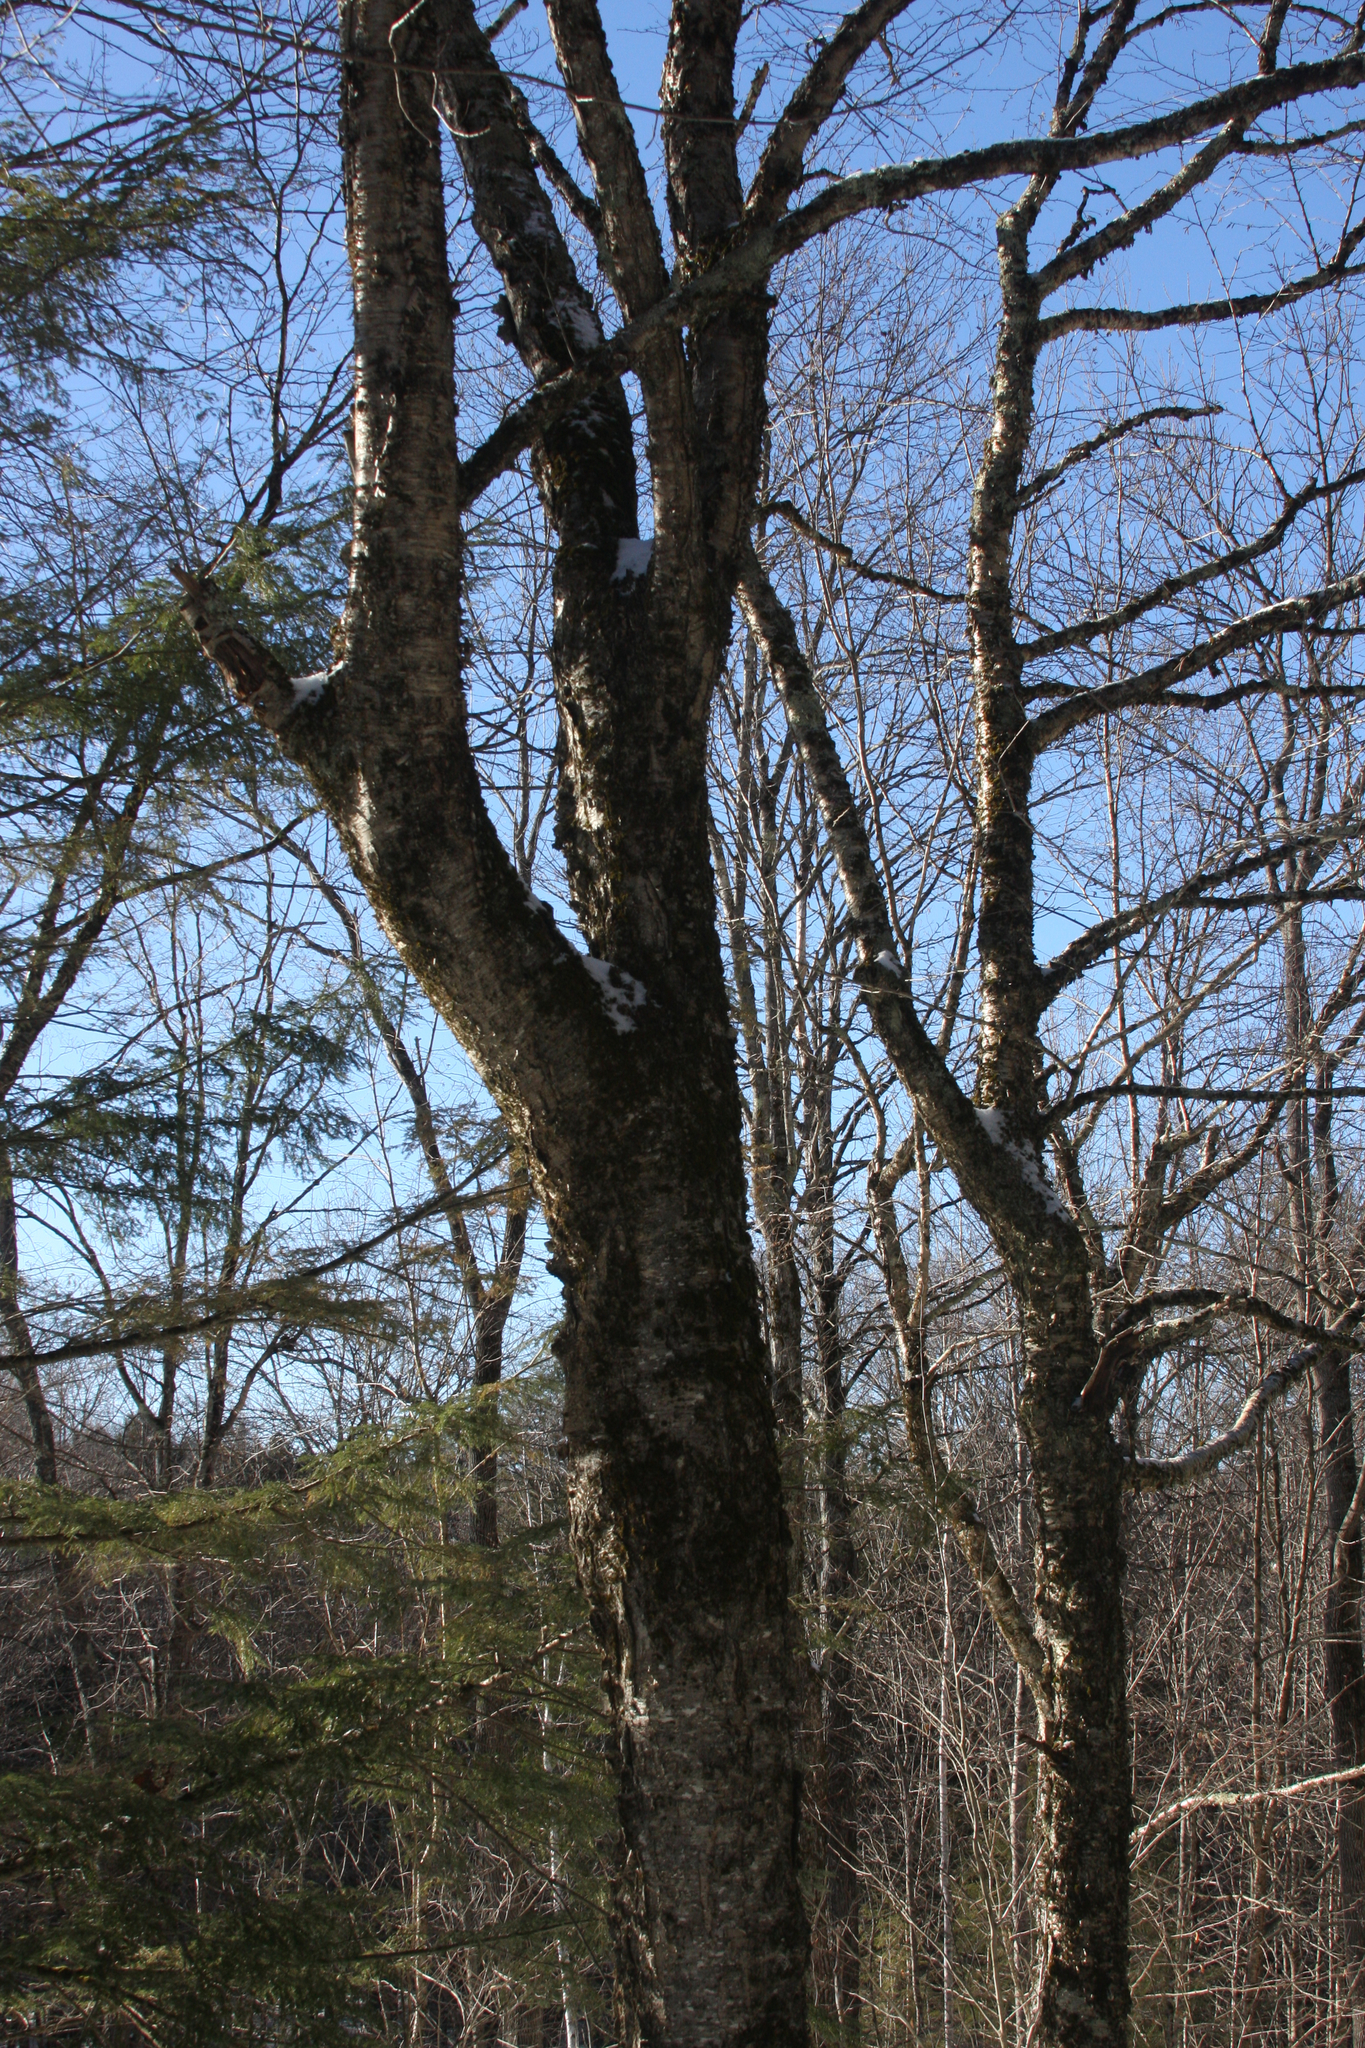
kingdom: Plantae
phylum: Tracheophyta
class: Magnoliopsida
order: Fagales
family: Betulaceae
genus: Betula
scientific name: Betula alleghaniensis
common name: Yellow birch
